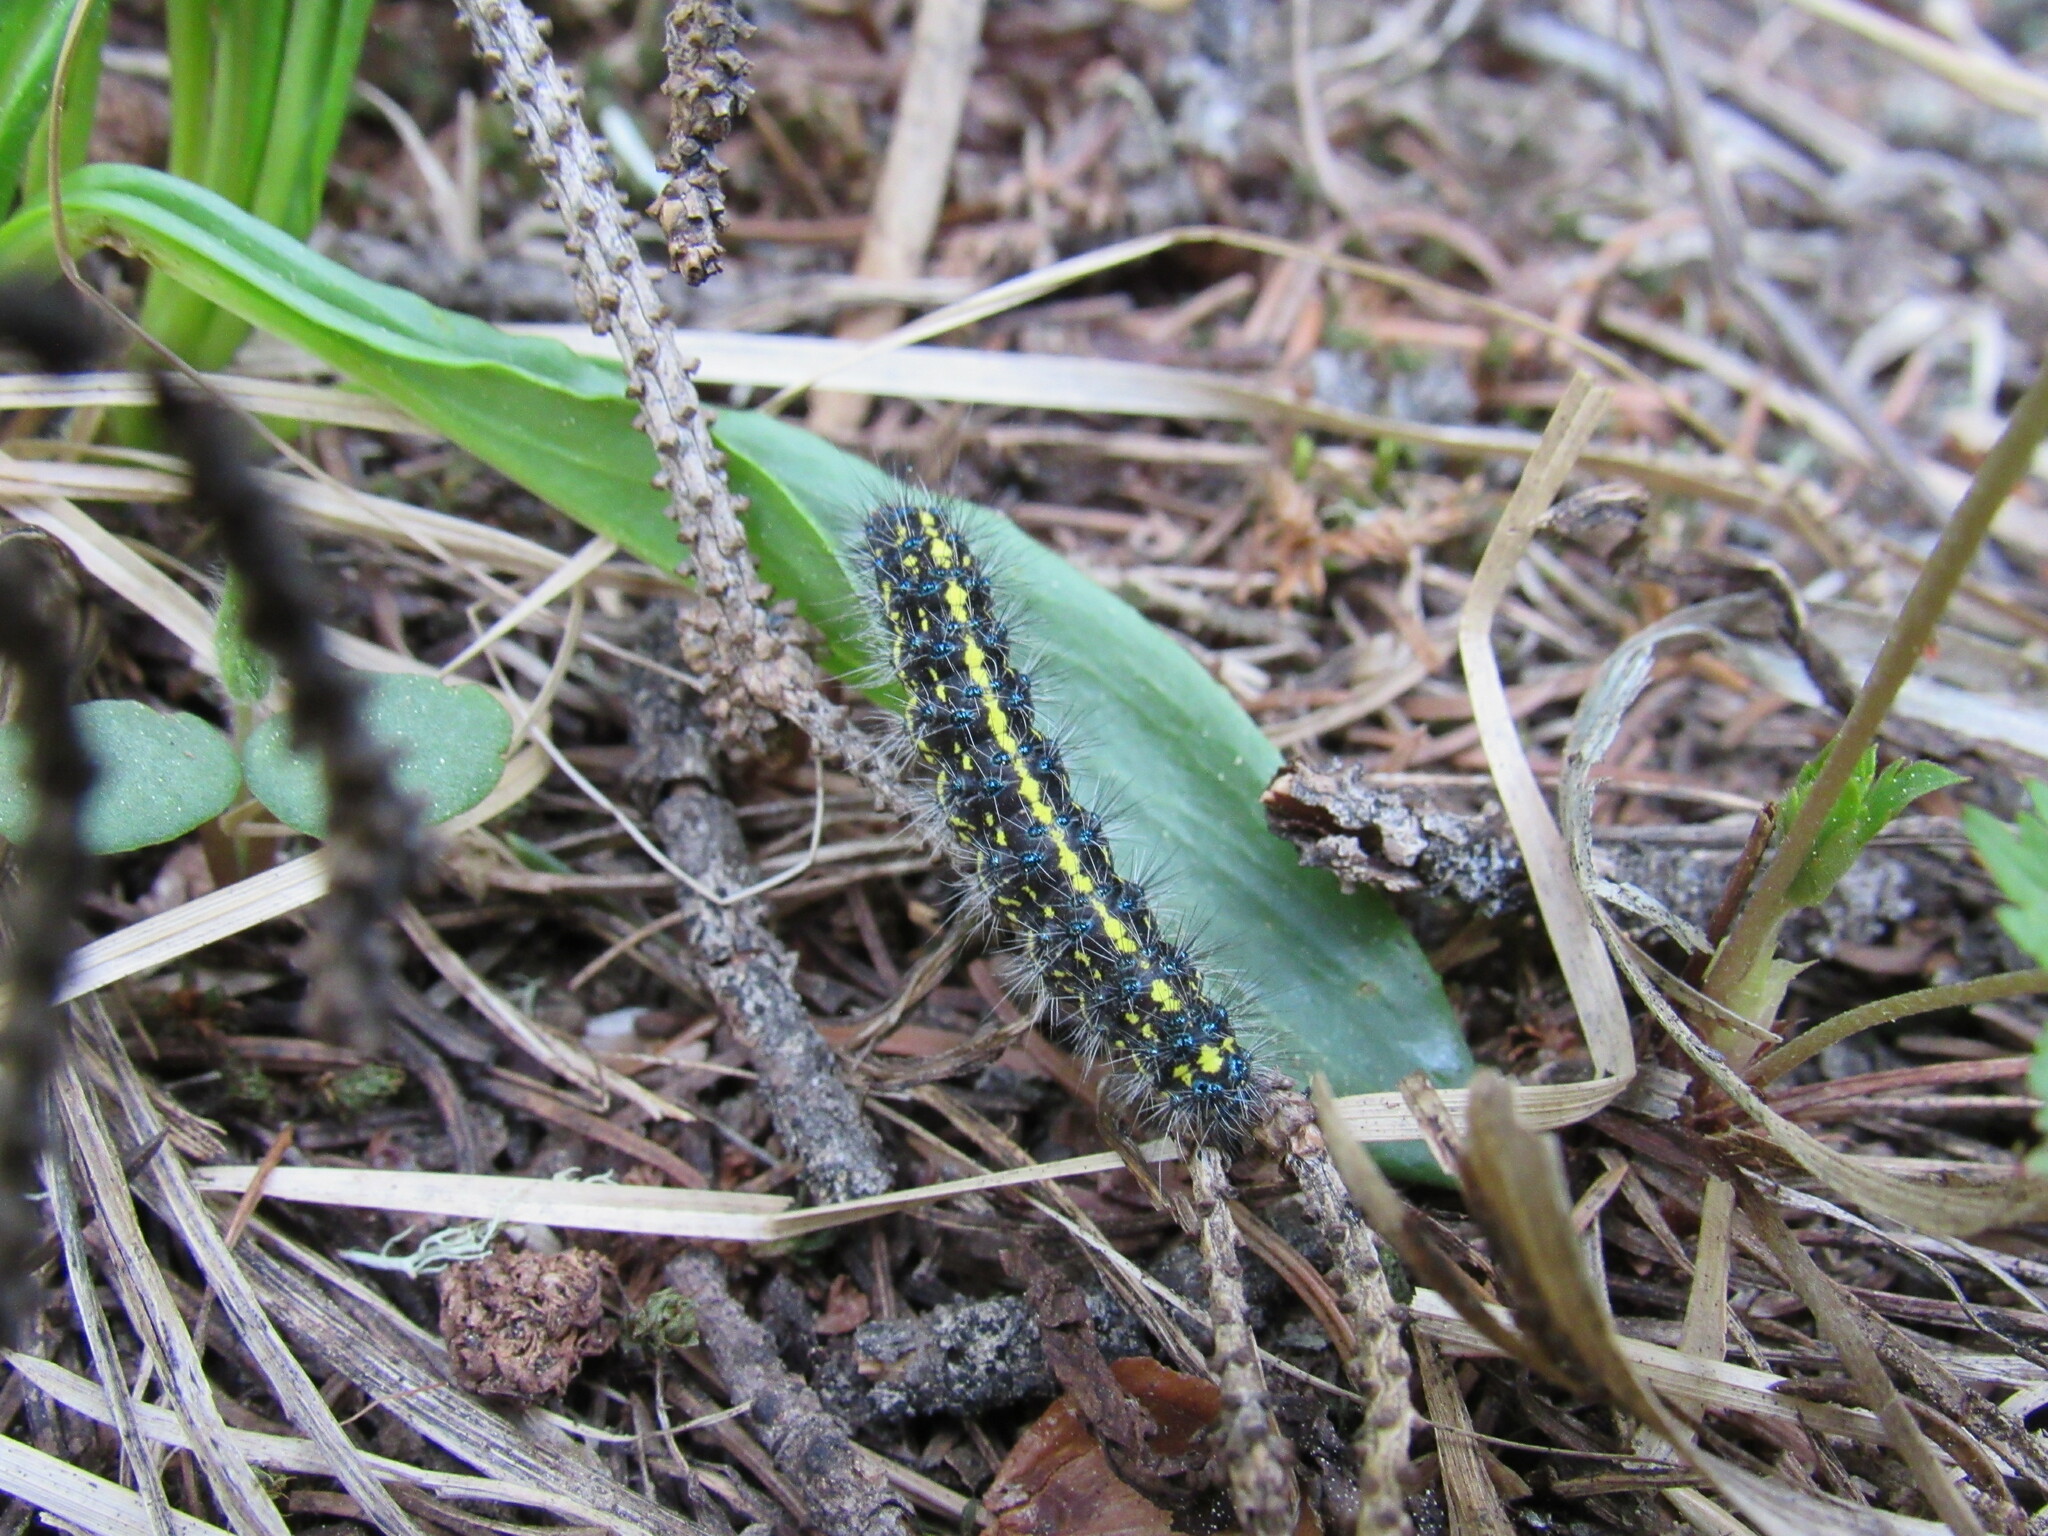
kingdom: Animalia
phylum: Arthropoda
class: Insecta
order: Lepidoptera
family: Erebidae
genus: Gnophaela
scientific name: Gnophaela vermiculata
